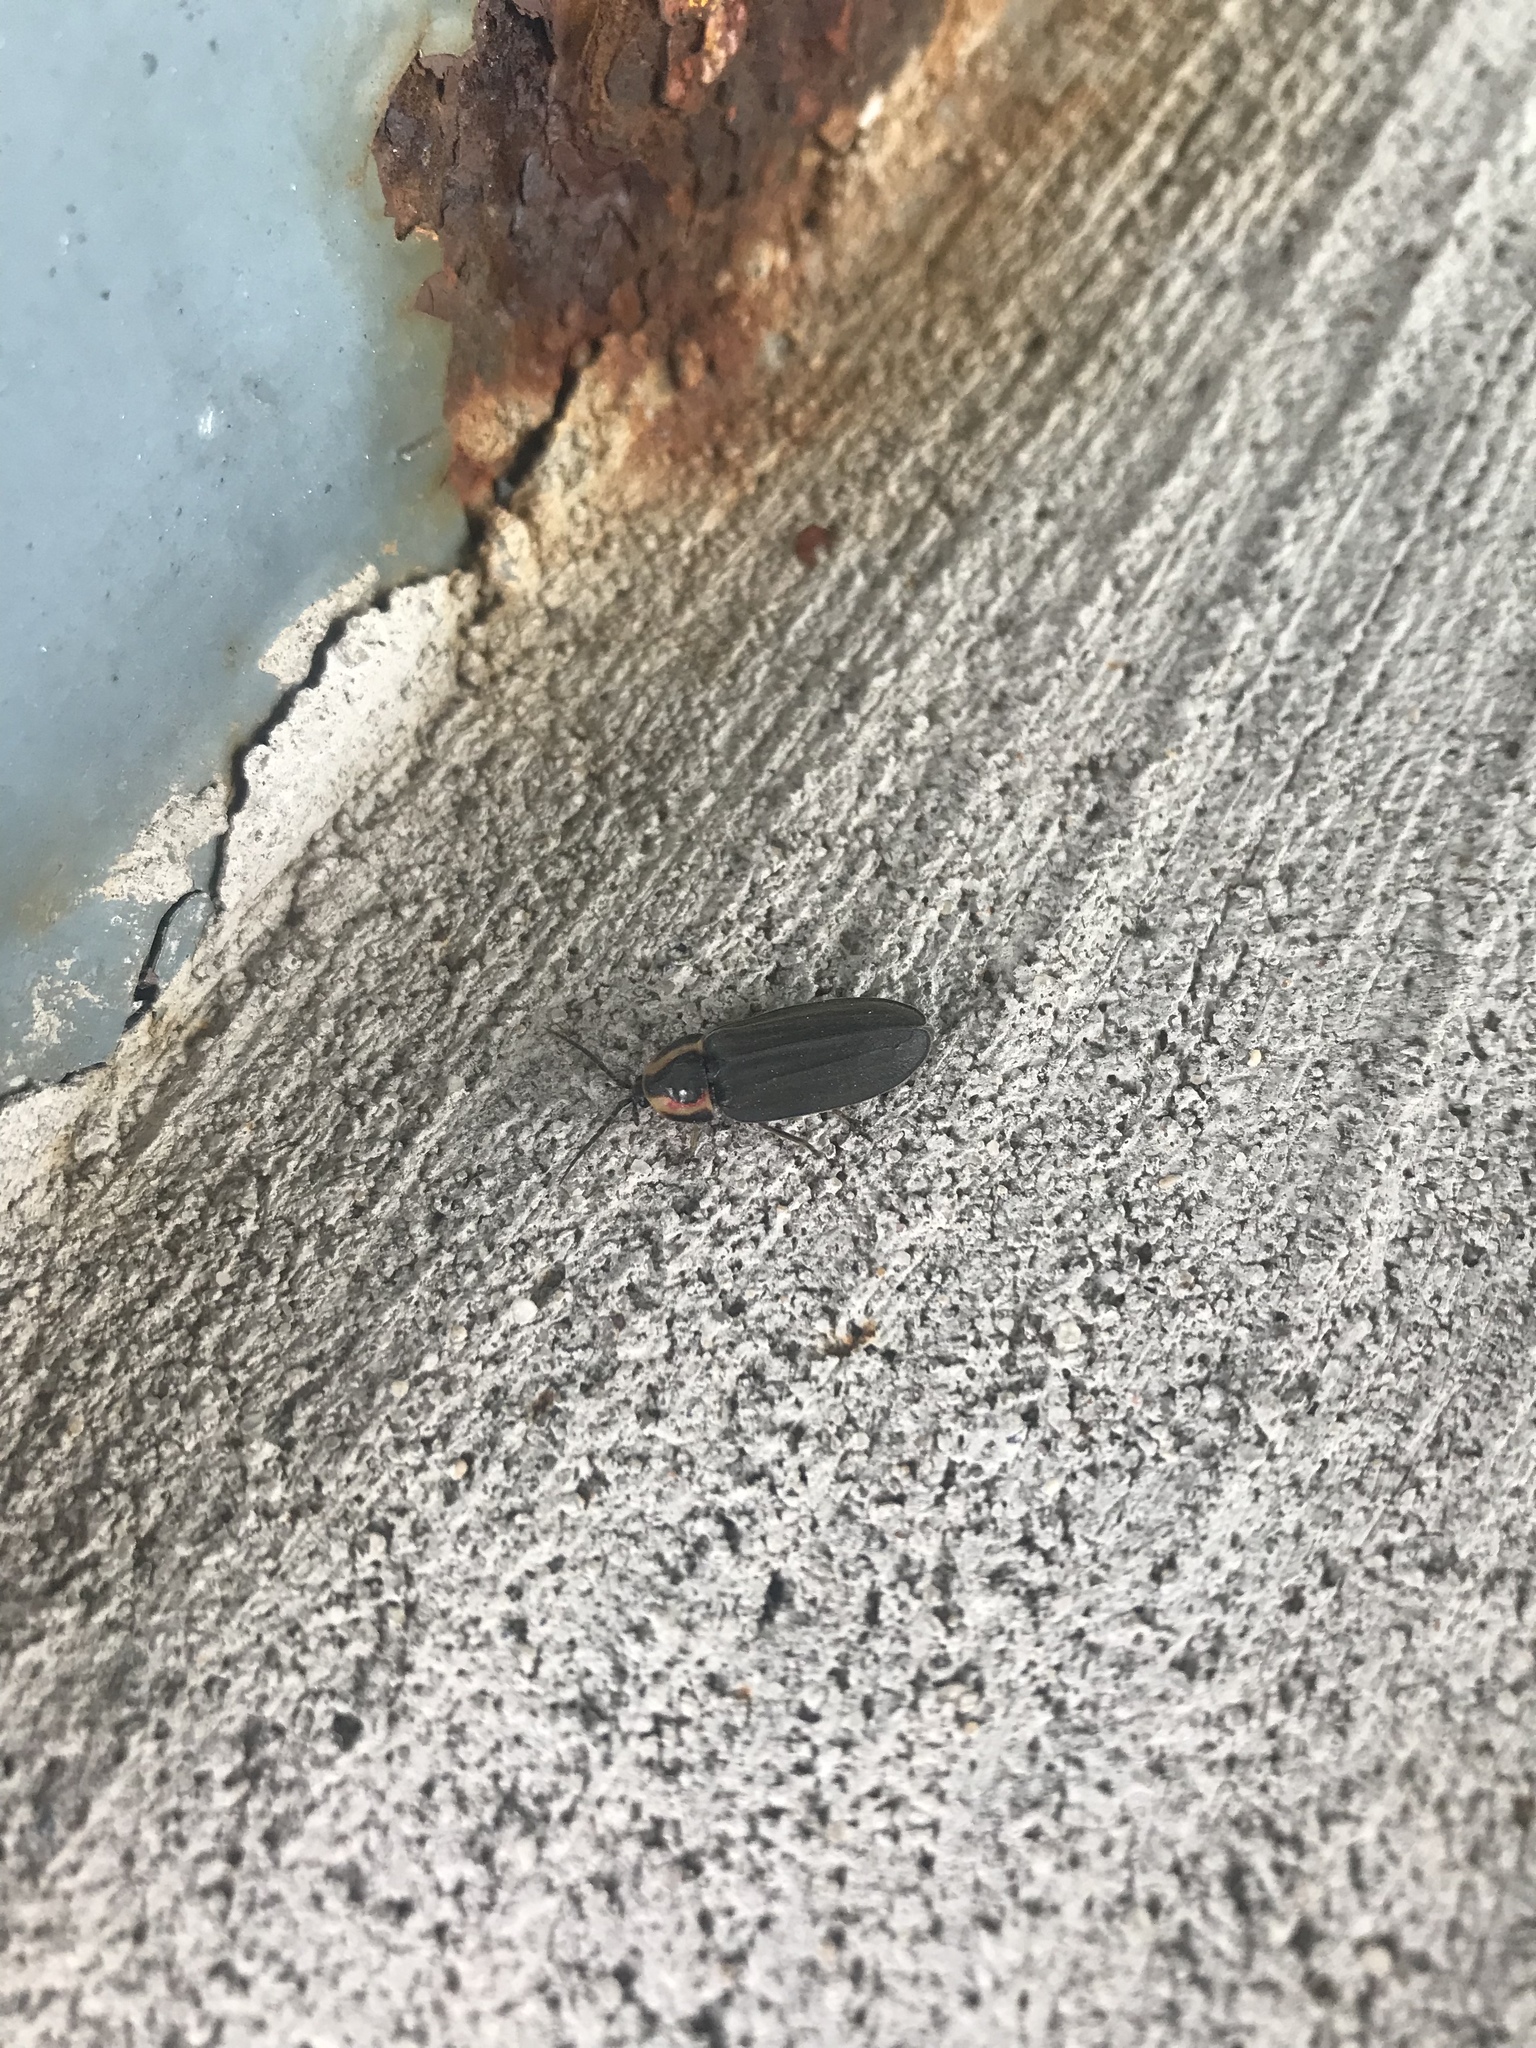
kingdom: Animalia
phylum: Arthropoda
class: Insecta
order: Coleoptera
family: Lampyridae
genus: Photinus
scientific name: Photinus corrusca
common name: Winter firefly
